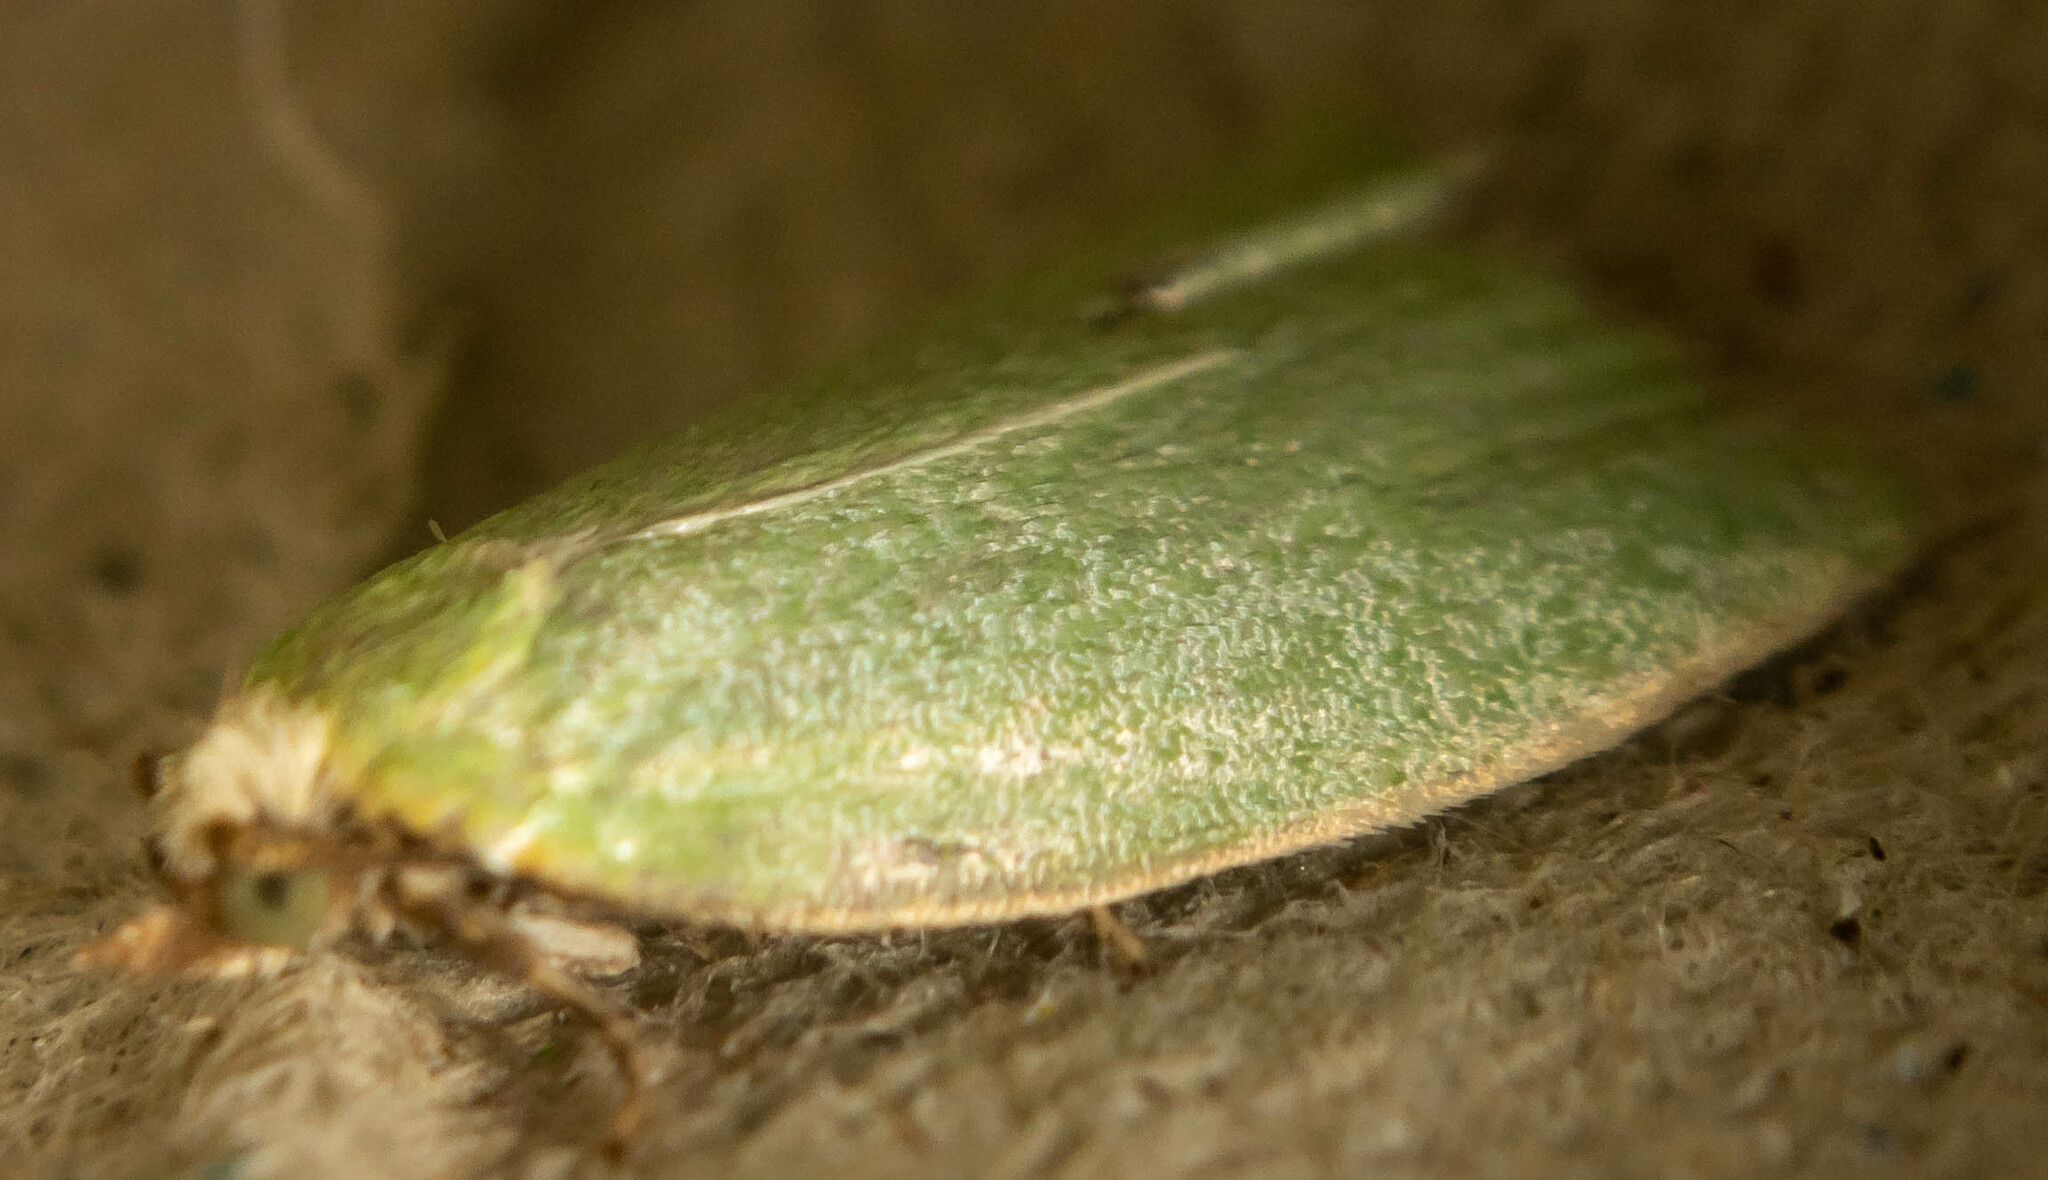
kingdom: Animalia
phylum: Arthropoda
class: Insecta
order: Lepidoptera
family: Tortricidae
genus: Tortrix
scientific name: Tortrix viridana
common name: Green oak tortrix
